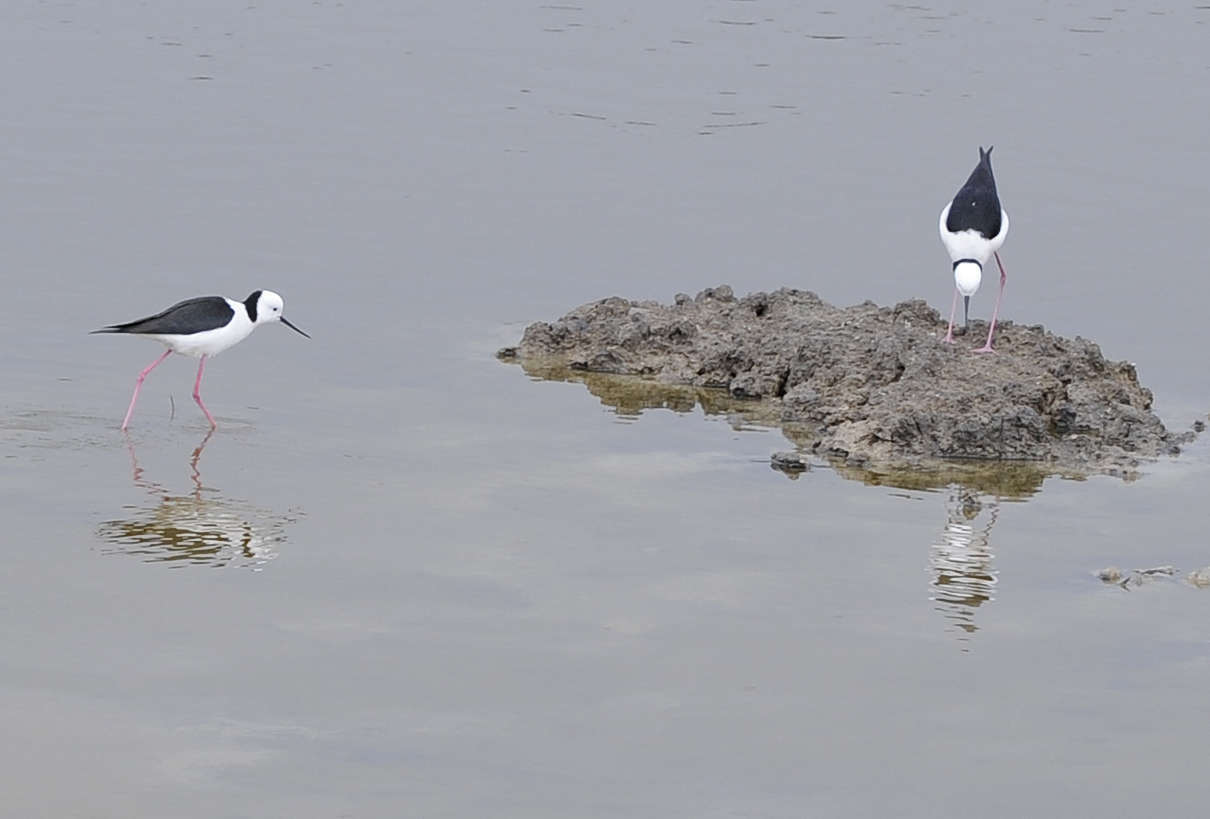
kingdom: Animalia
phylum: Chordata
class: Aves
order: Charadriiformes
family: Recurvirostridae
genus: Himantopus
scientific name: Himantopus leucocephalus
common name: White-headed stilt
